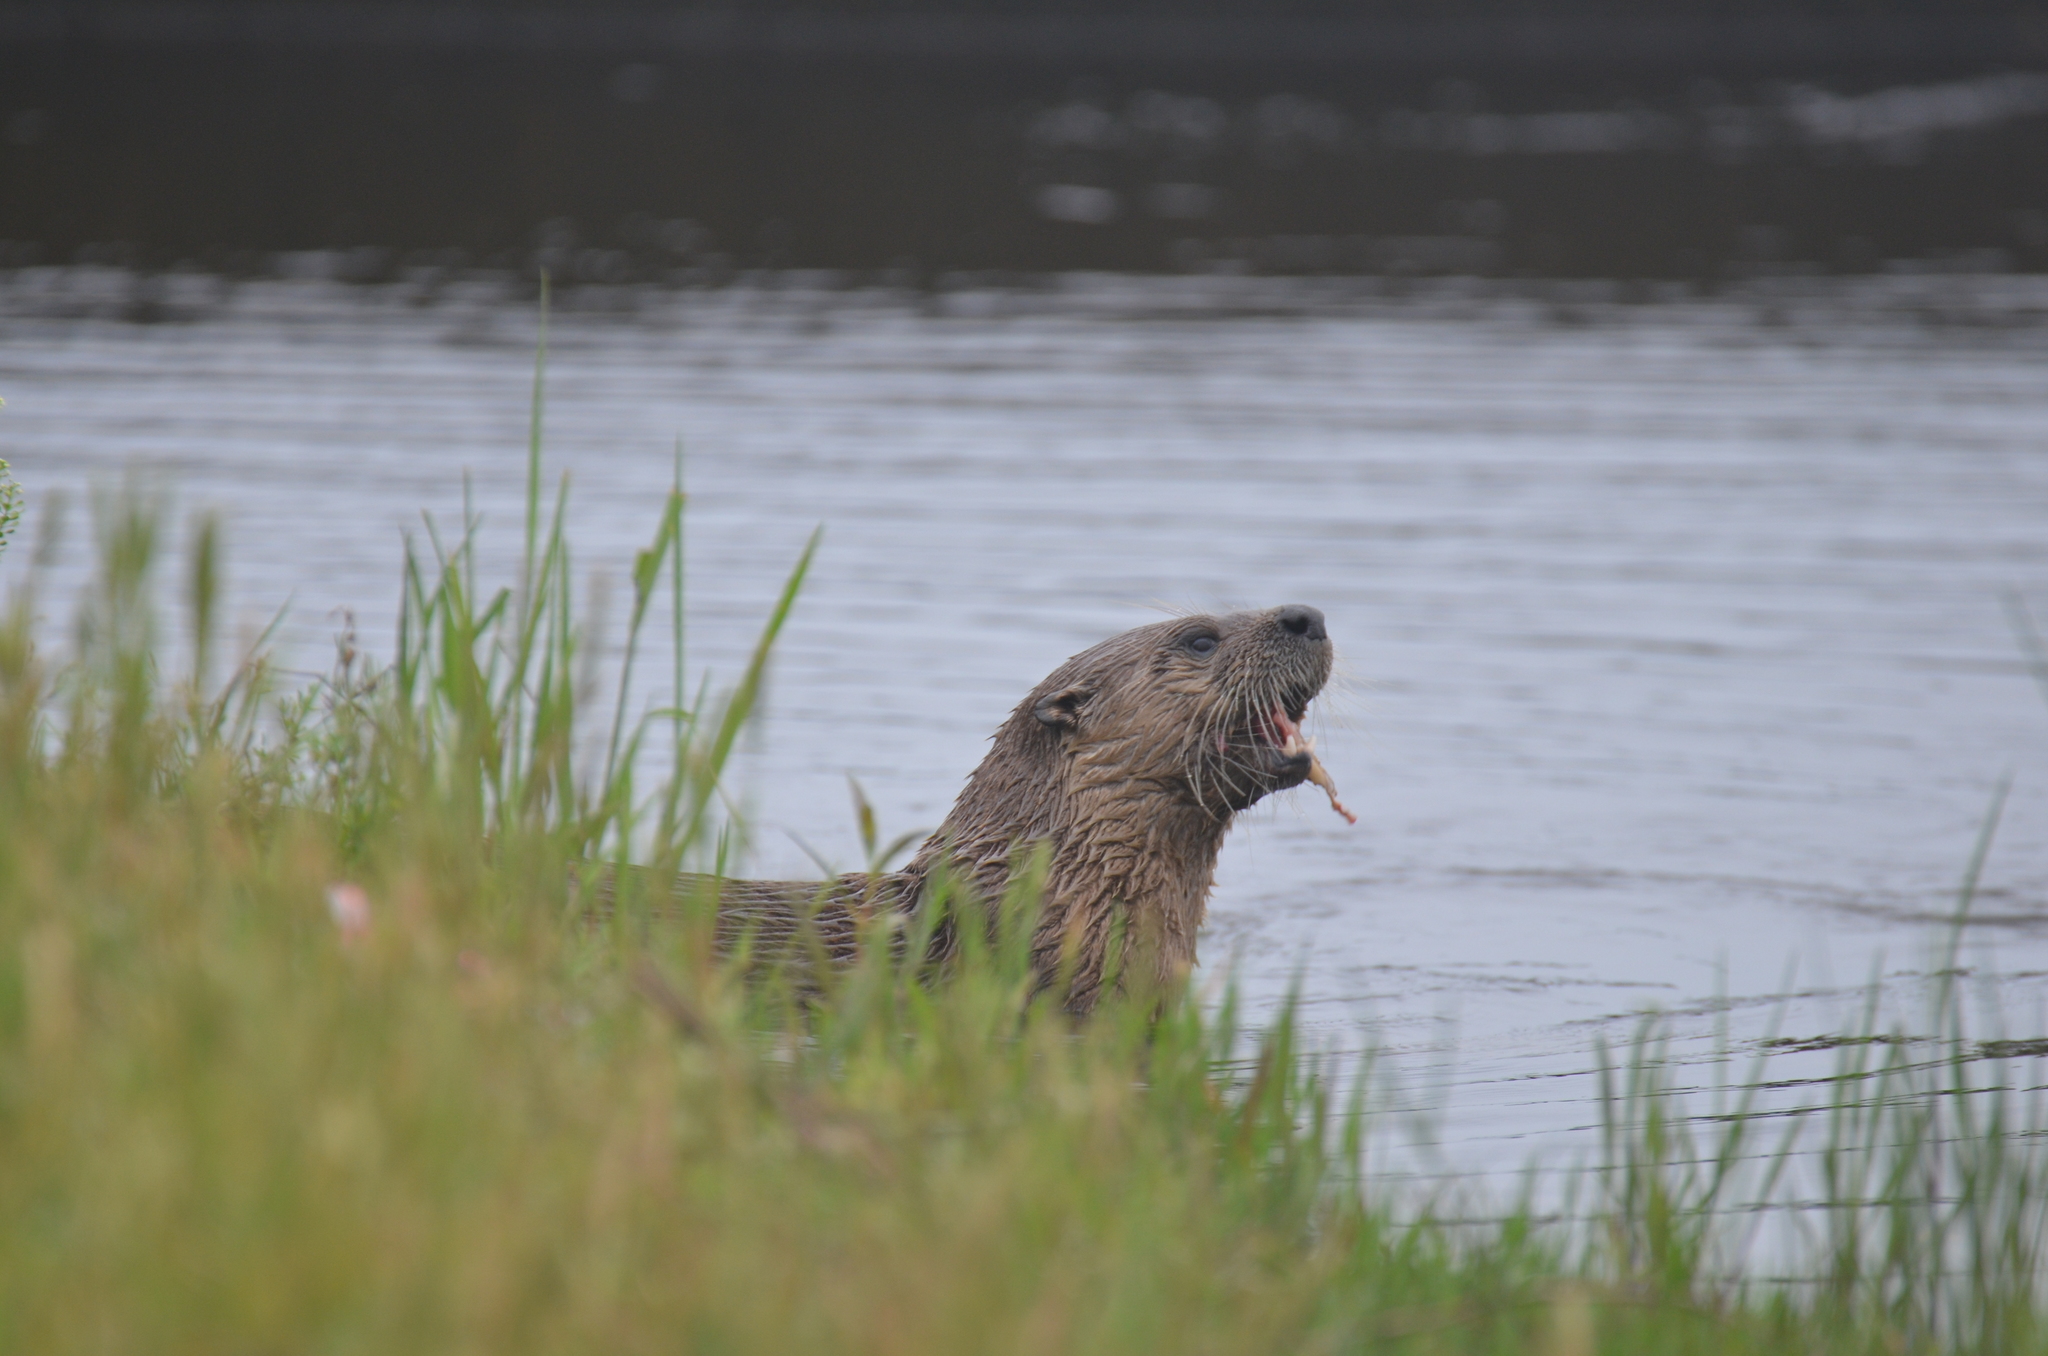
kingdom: Animalia
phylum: Chordata
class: Mammalia
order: Carnivora
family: Mustelidae
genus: Lontra
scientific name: Lontra canadensis
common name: North american river otter
